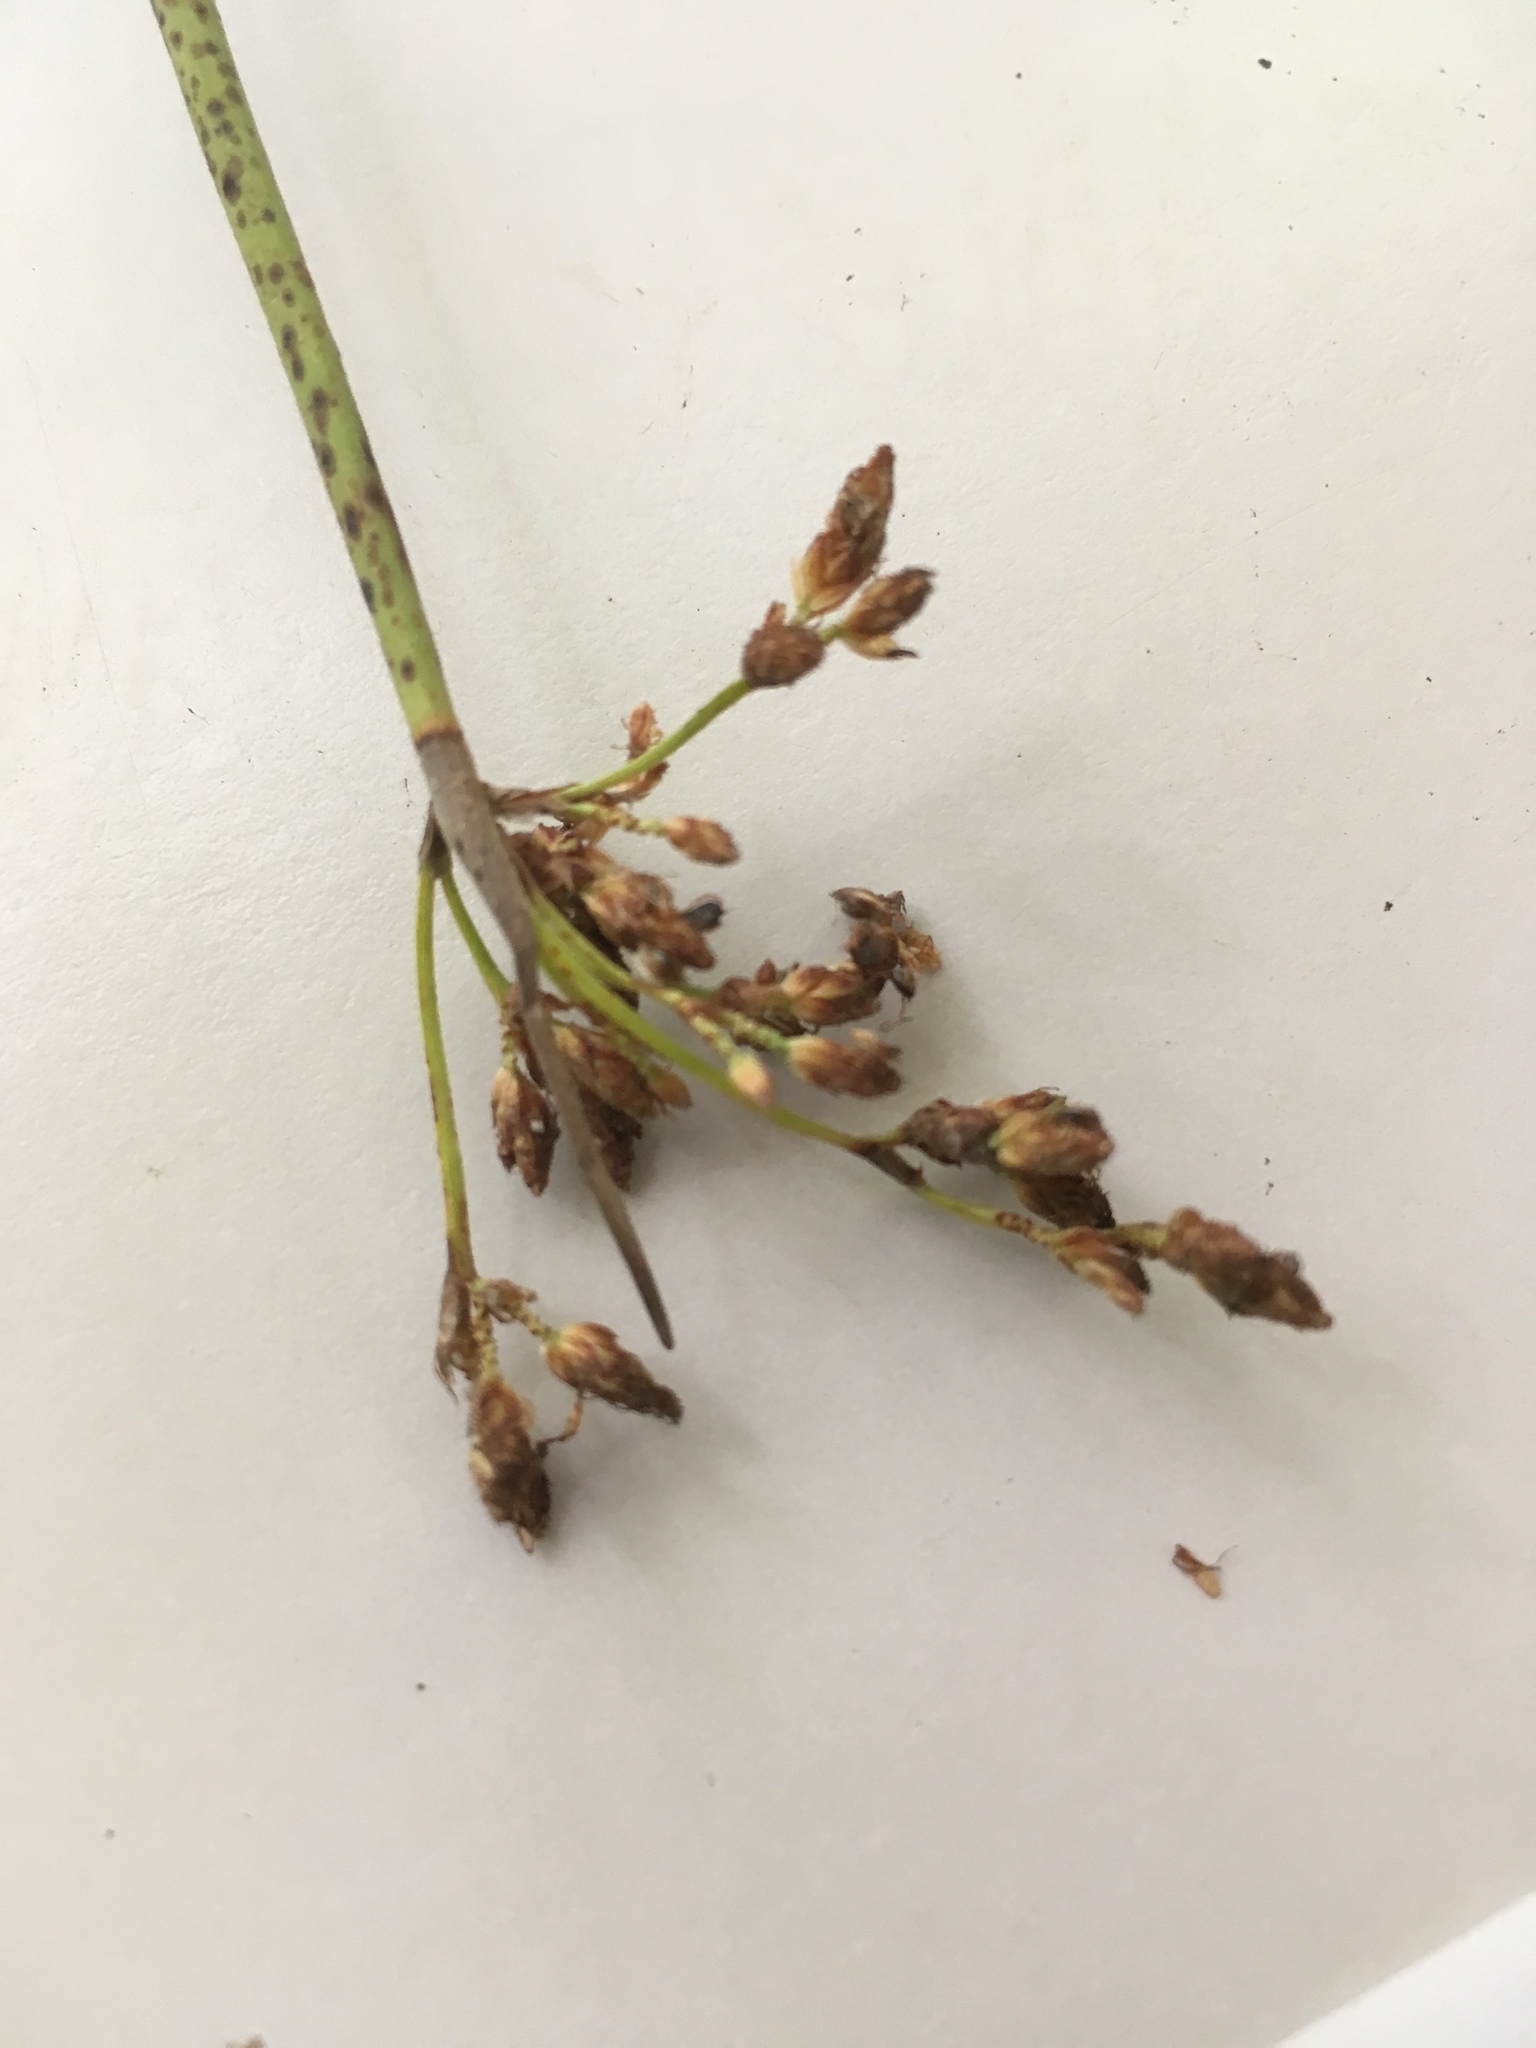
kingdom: Plantae
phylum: Tracheophyta
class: Liliopsida
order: Poales
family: Cyperaceae
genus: Schoenoplectus
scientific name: Schoenoplectus tabernaemontani
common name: Grey club-rush
